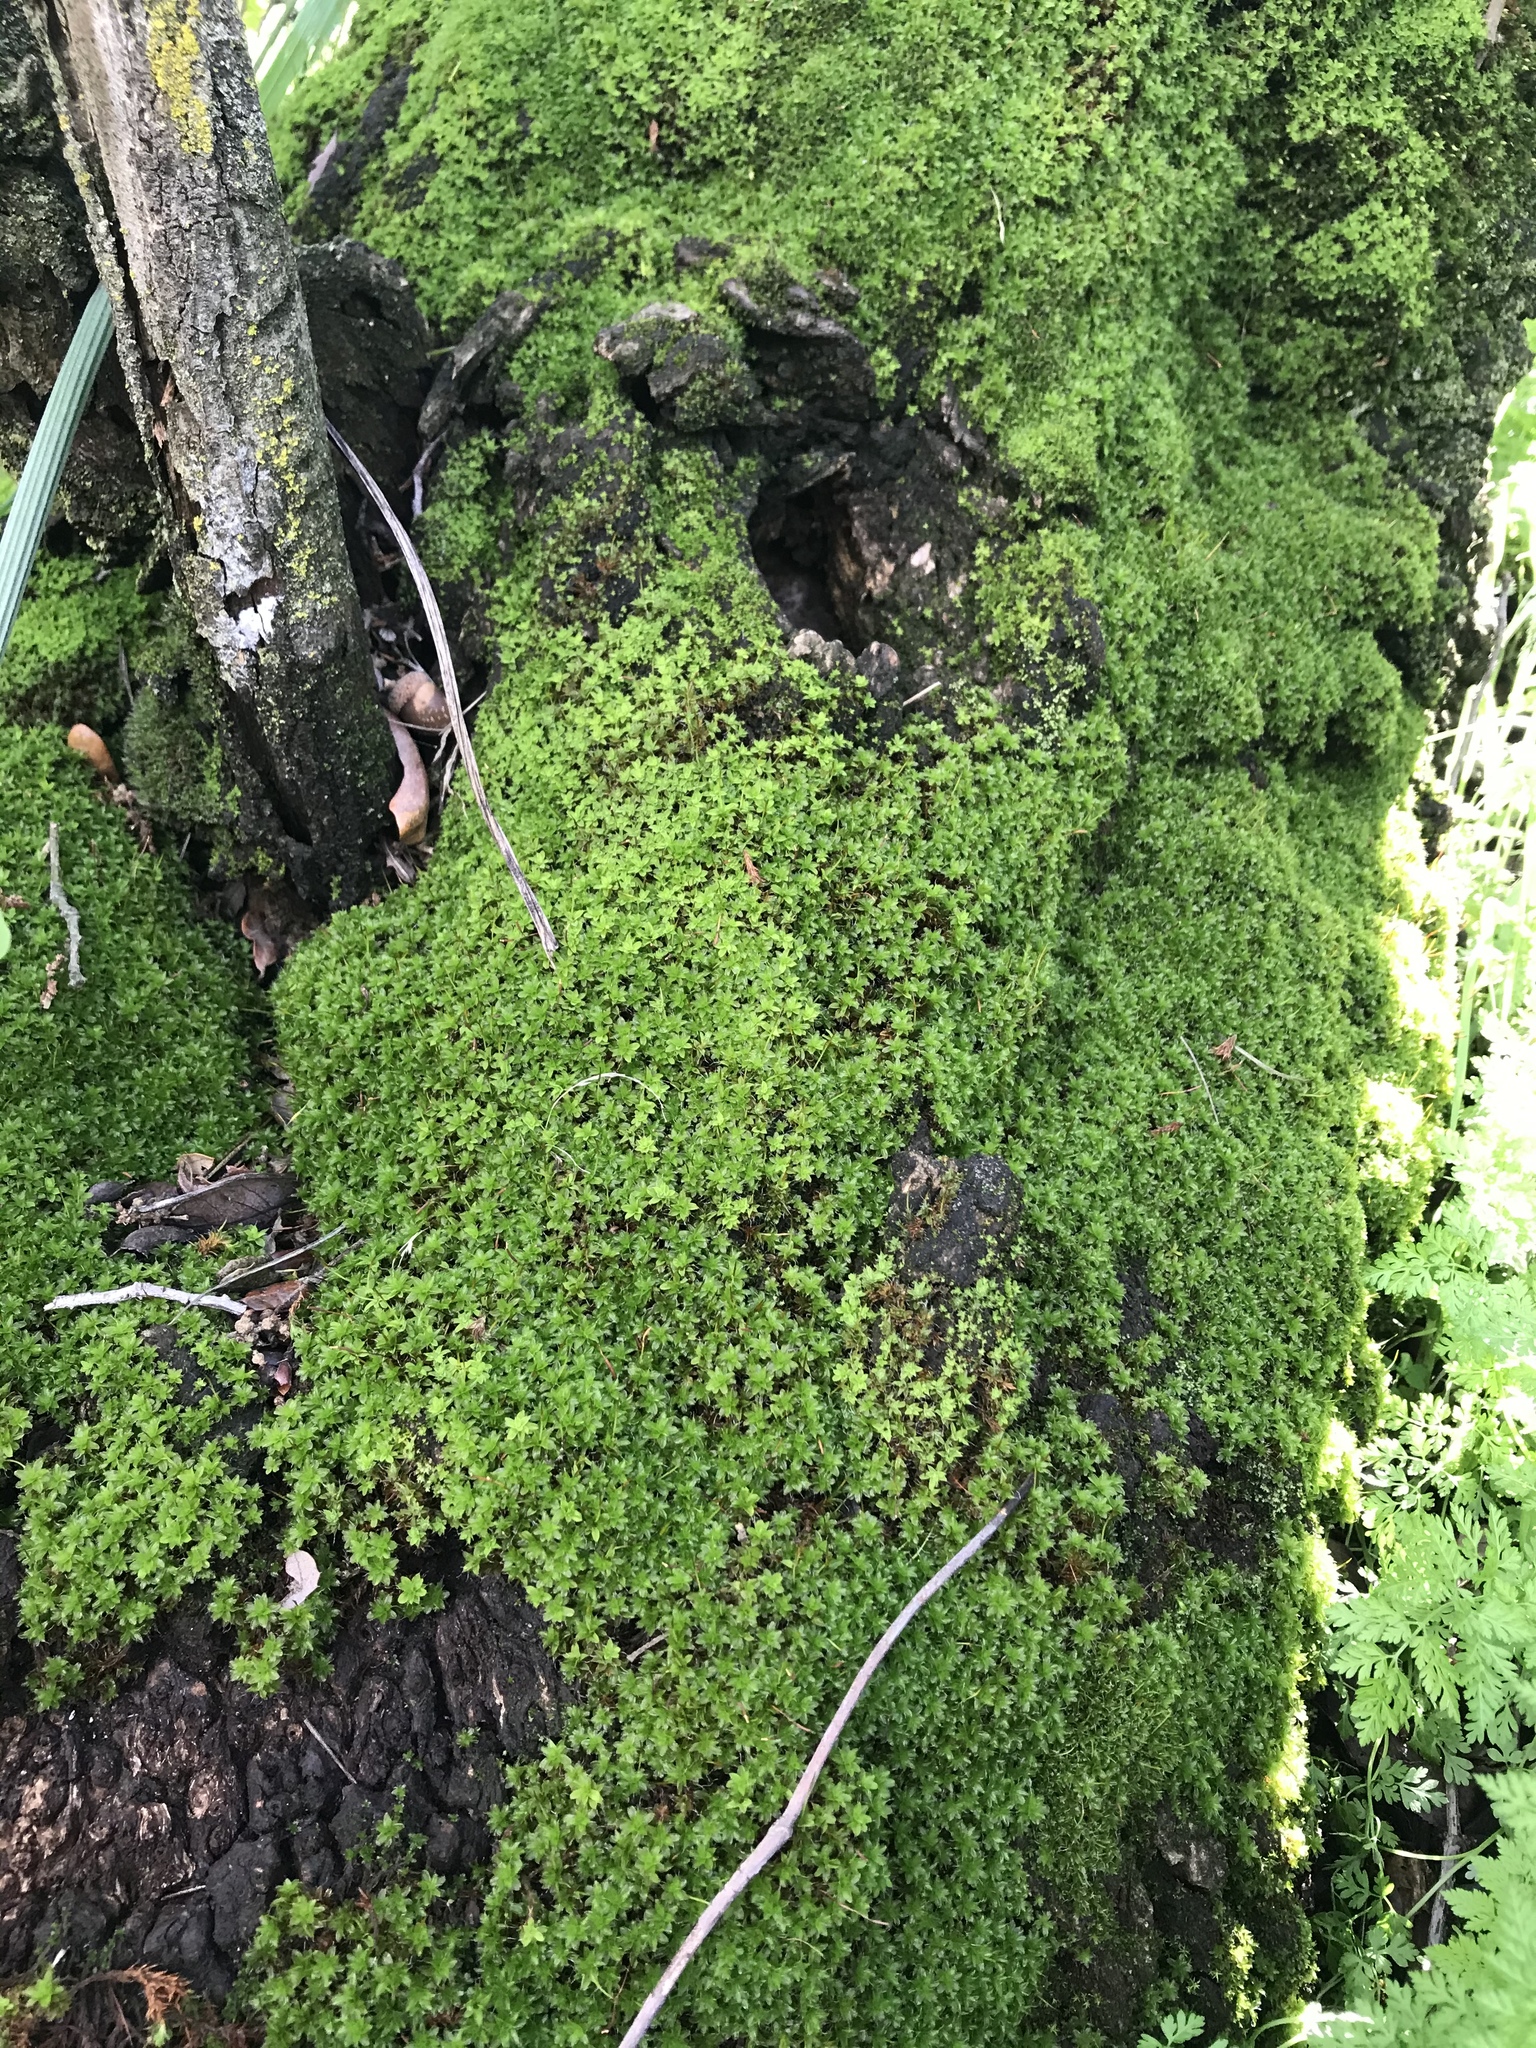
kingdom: Plantae
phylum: Bryophyta
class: Bryopsida
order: Pottiales
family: Pottiaceae
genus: Syntrichia
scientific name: Syntrichia virescens
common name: Lesser screw-moss
